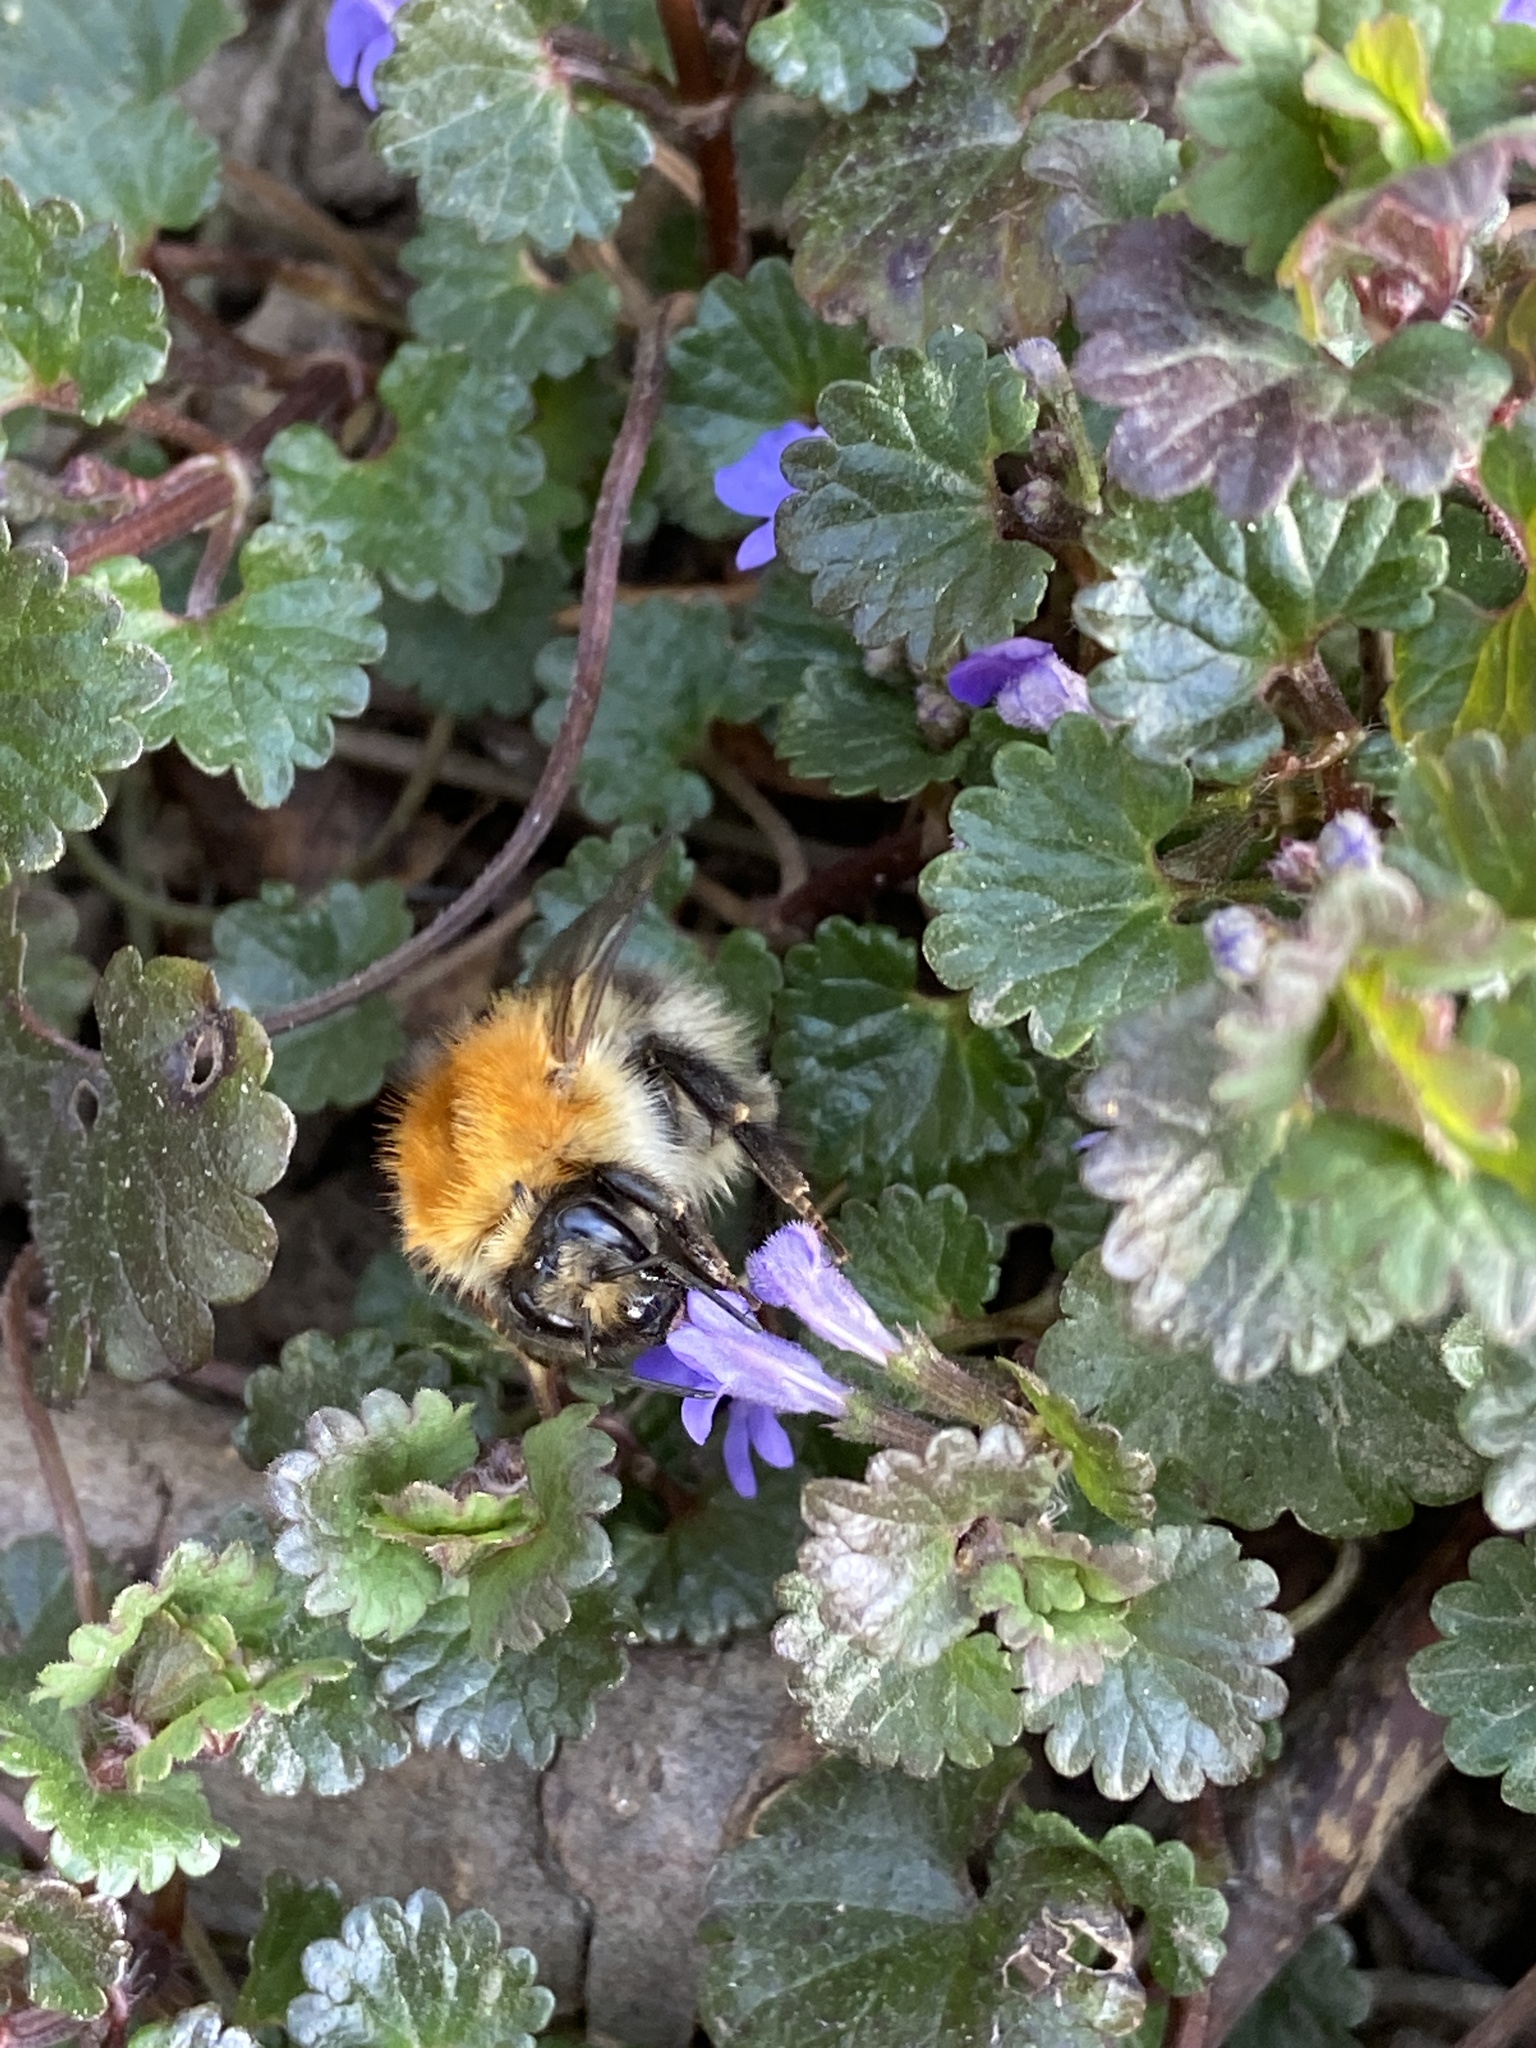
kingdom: Animalia
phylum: Arthropoda
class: Insecta
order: Hymenoptera
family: Apidae
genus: Bombus
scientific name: Bombus pascuorum
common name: Common carder bee
